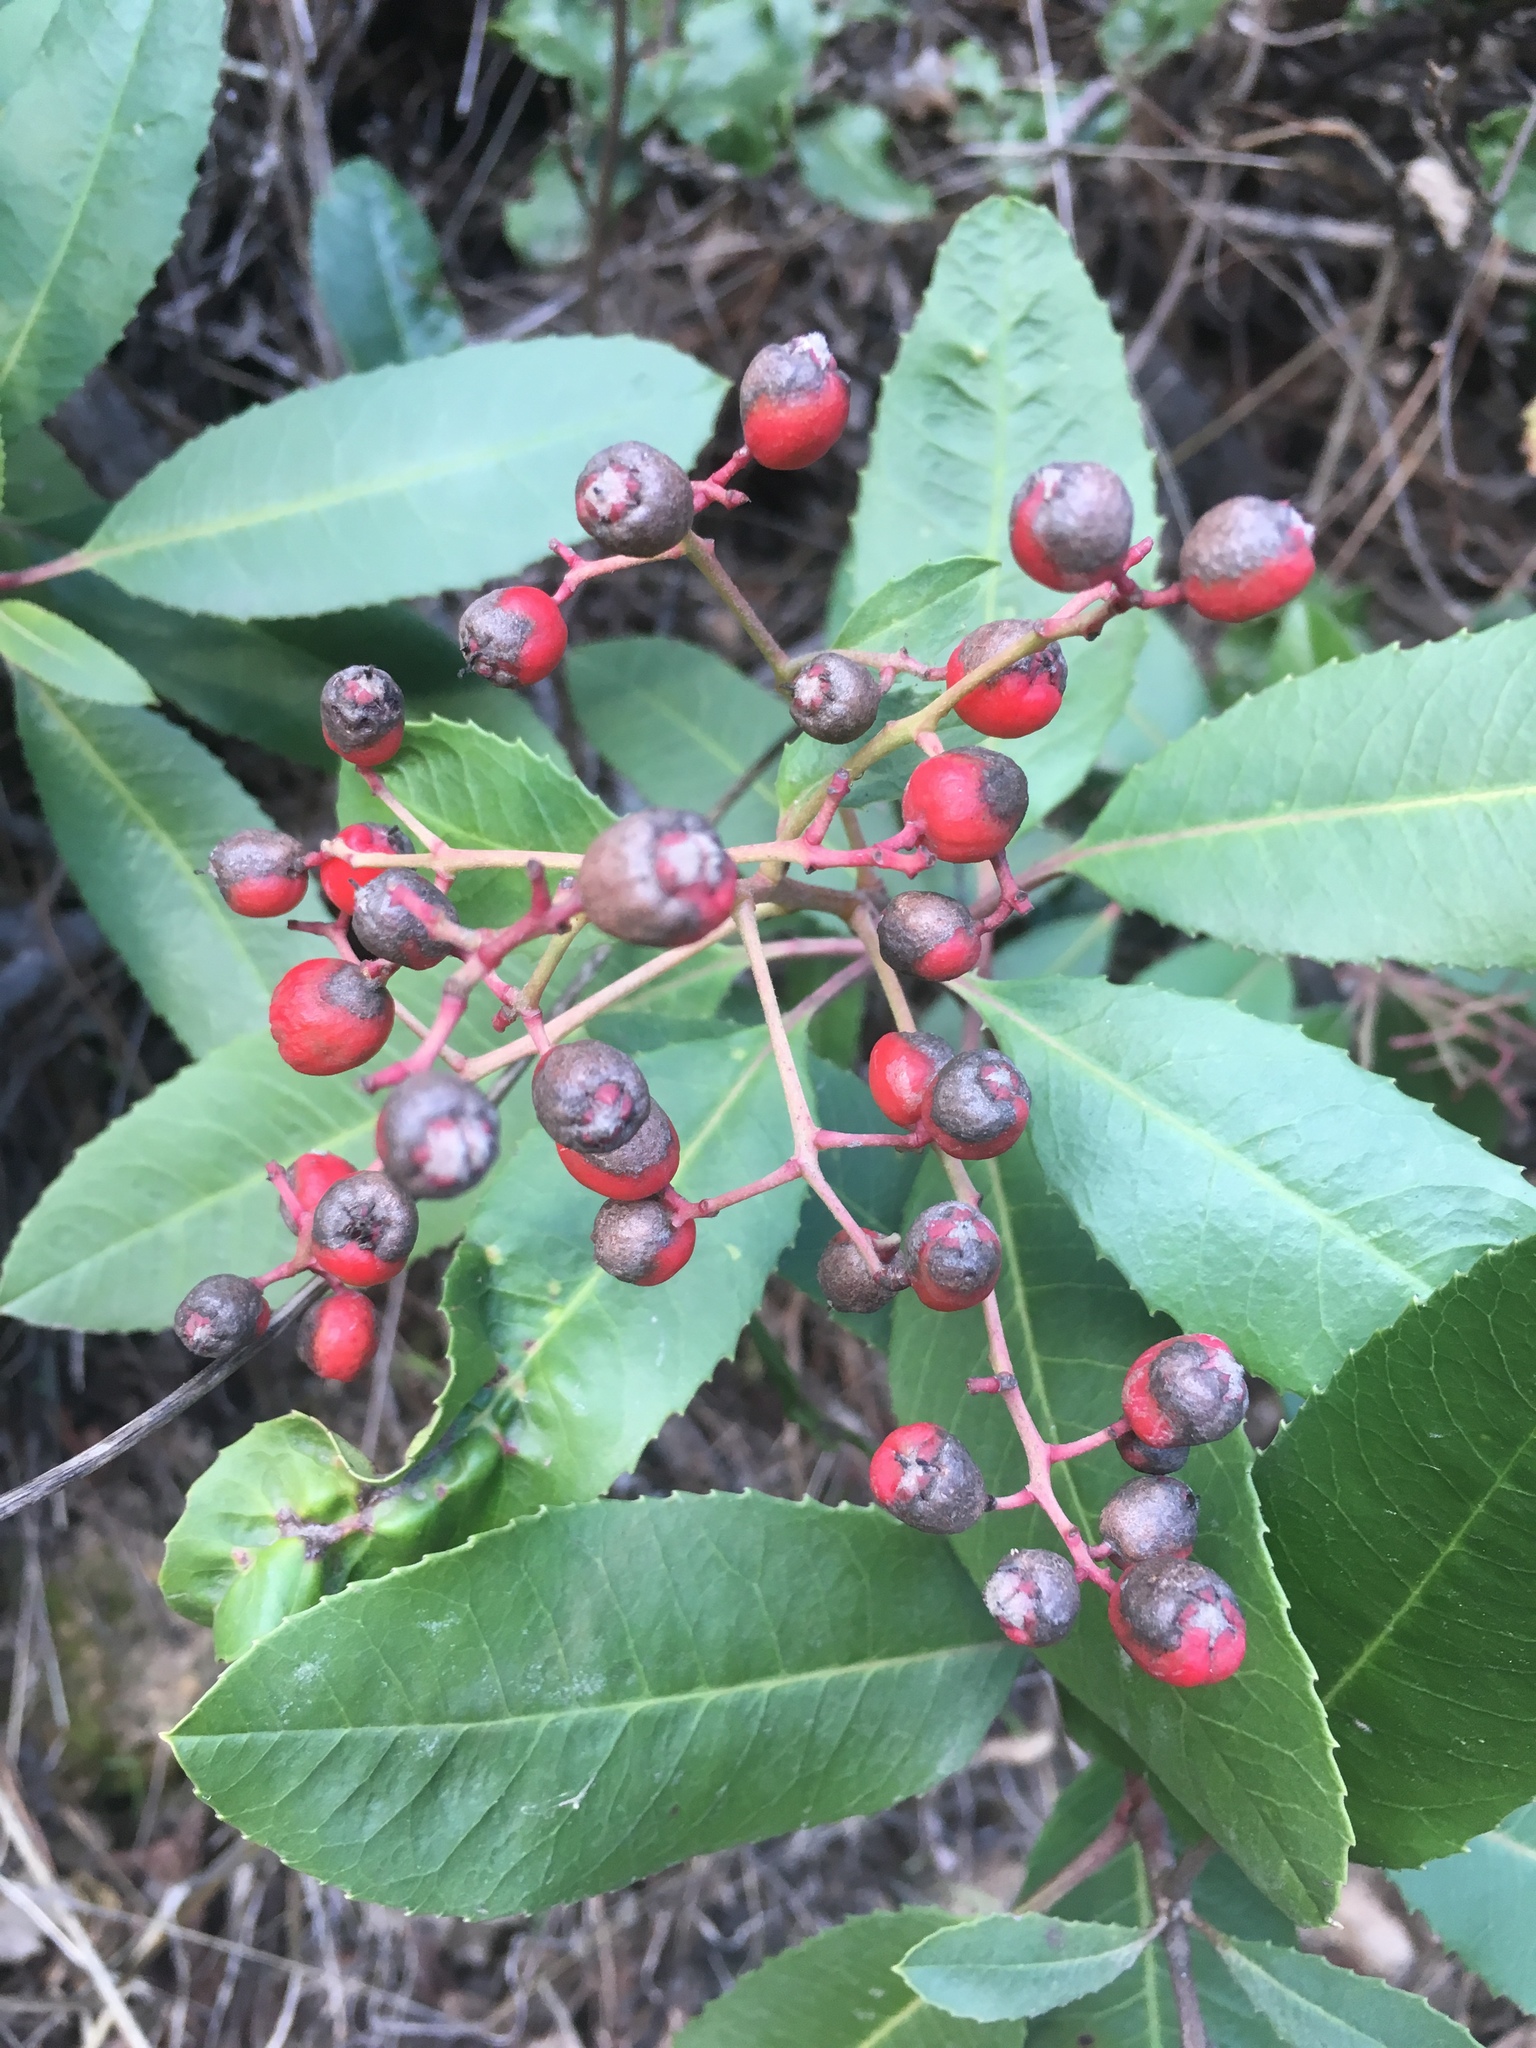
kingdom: Plantae
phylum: Tracheophyta
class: Magnoliopsida
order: Rosales
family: Rosaceae
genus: Heteromeles
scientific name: Heteromeles arbutifolia
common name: California-holly
